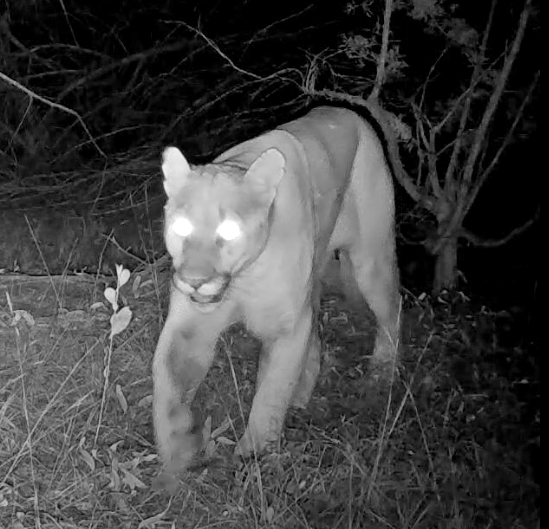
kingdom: Animalia
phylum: Chordata
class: Mammalia
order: Carnivora
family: Felidae
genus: Puma
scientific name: Puma concolor
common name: Puma
